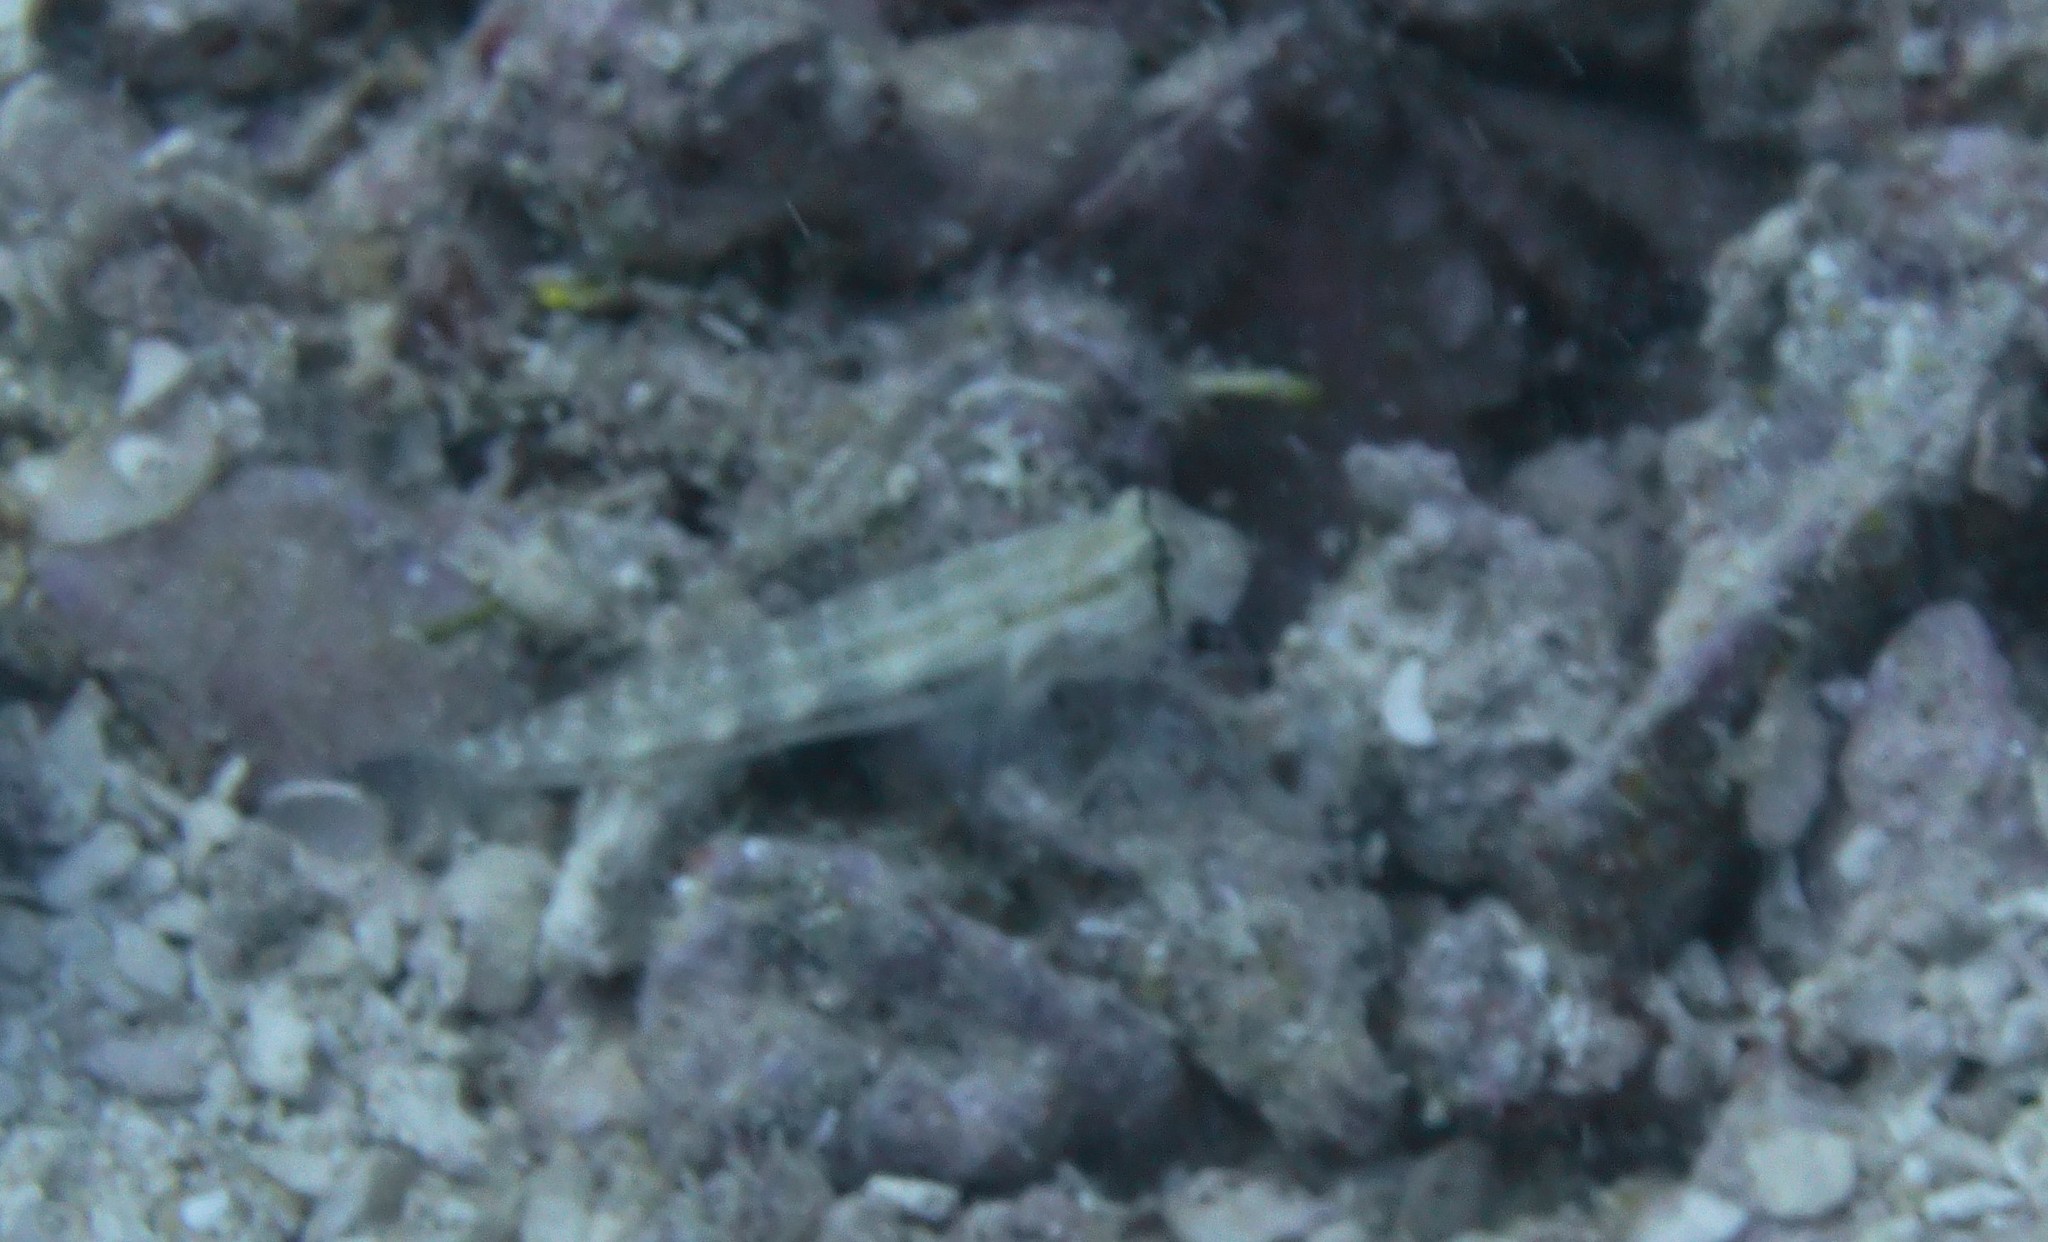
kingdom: Animalia
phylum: Chordata
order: Perciformes
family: Gobiidae
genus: Gnatholepis
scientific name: Gnatholepis thompsoni
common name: Goldspot goby
